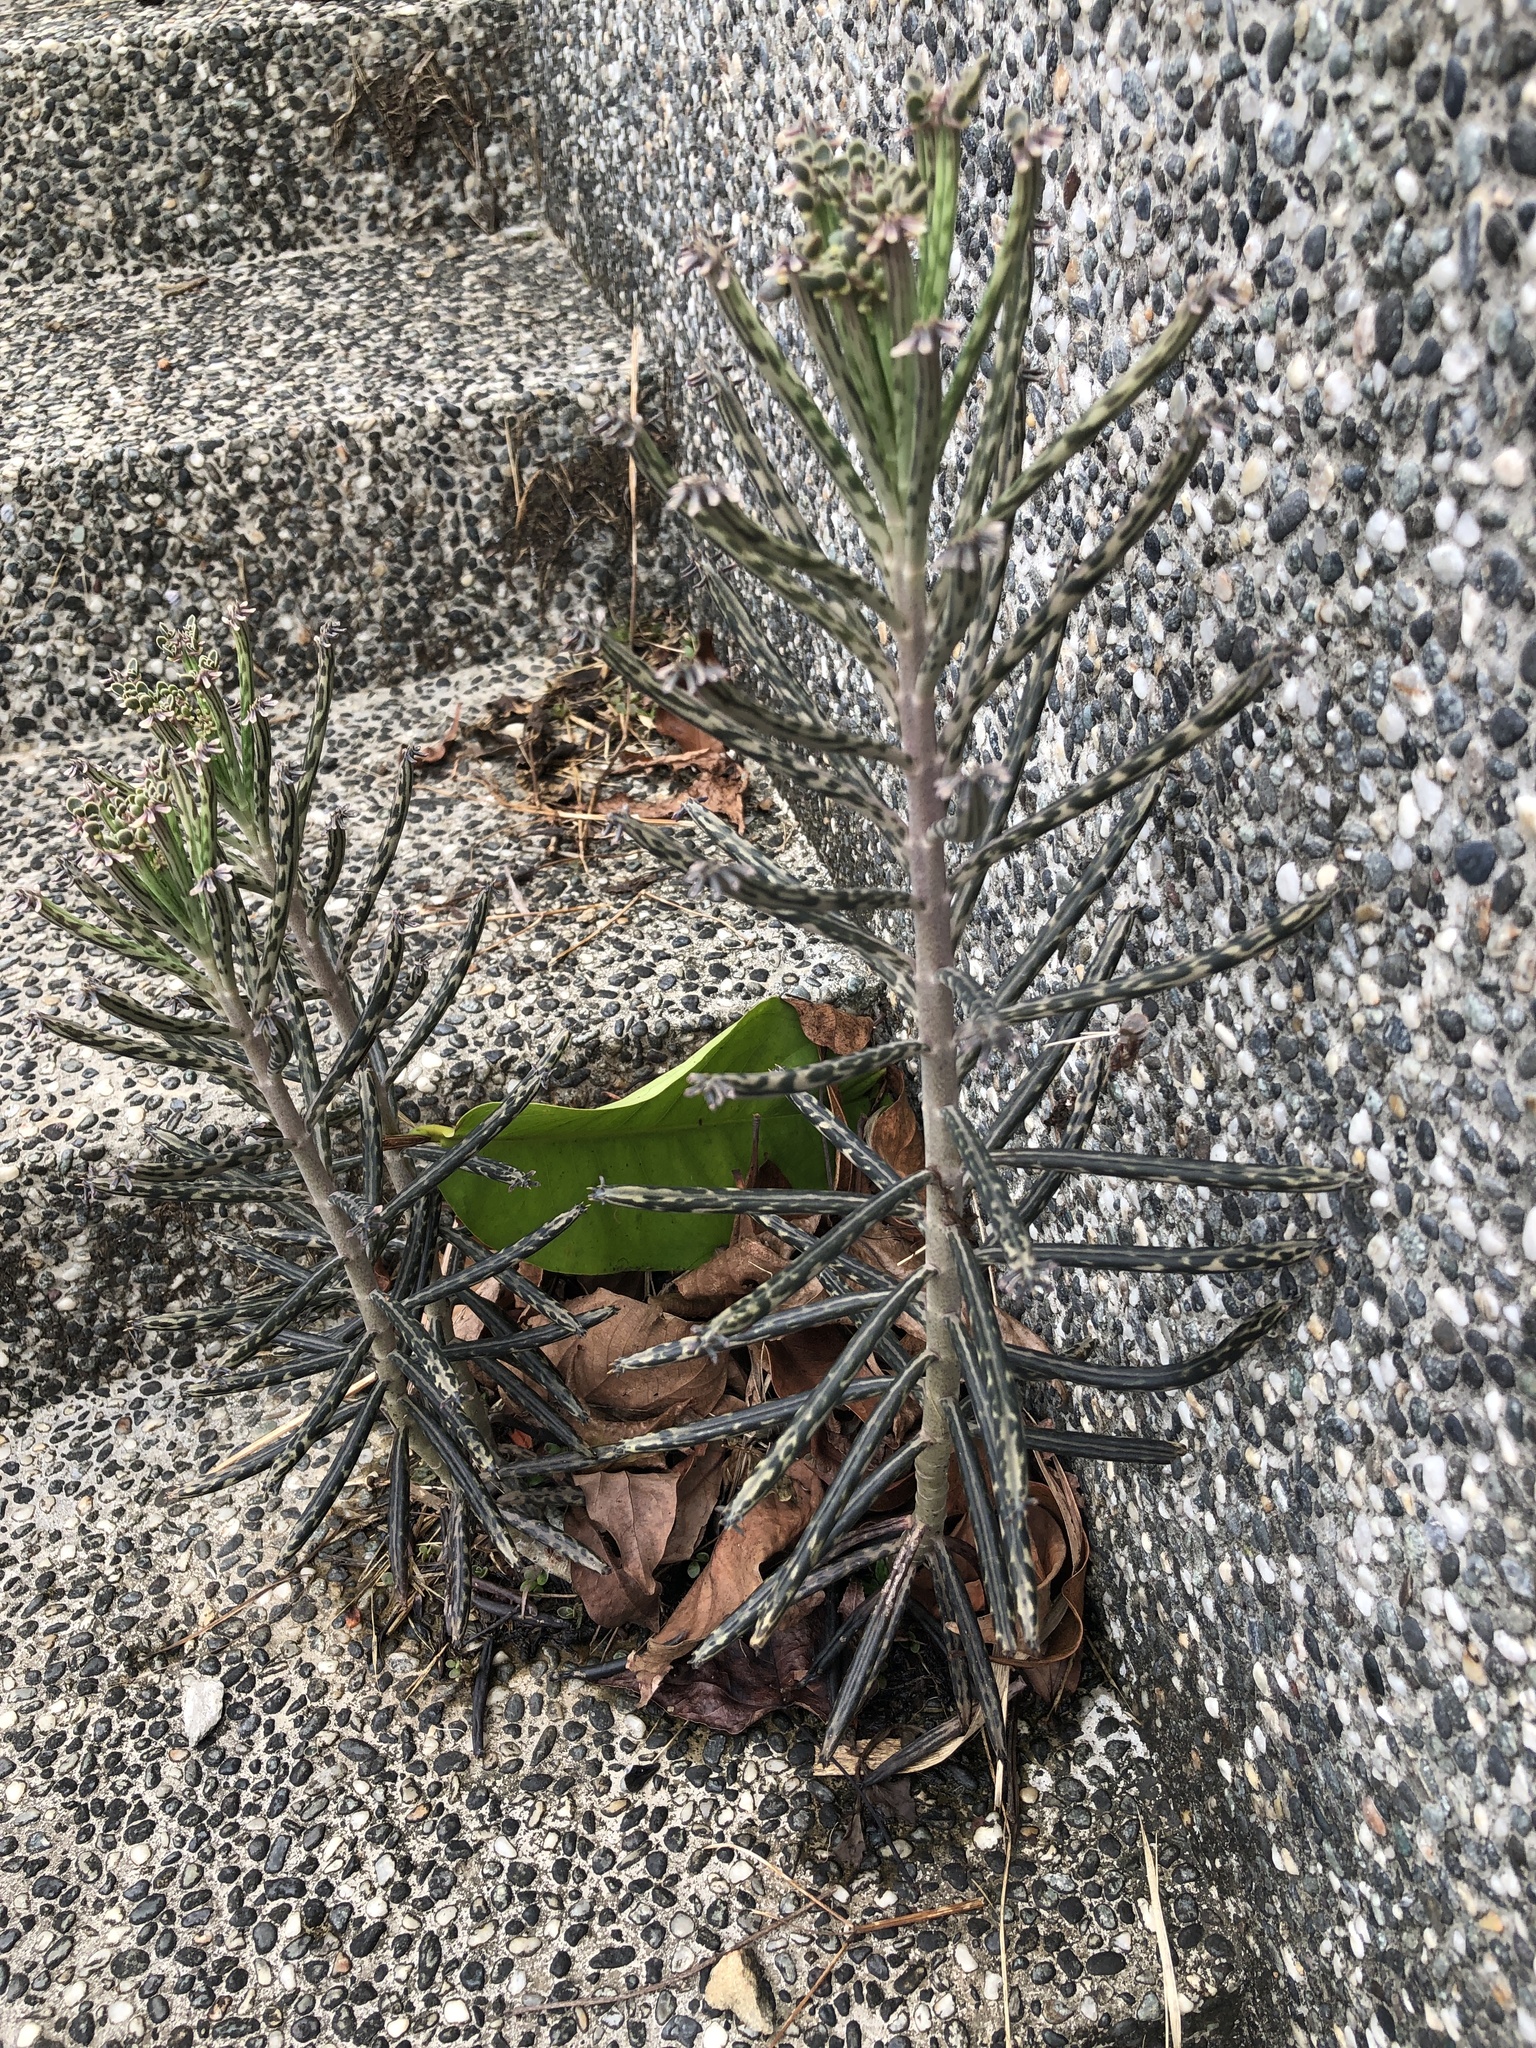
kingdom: Plantae
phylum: Tracheophyta
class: Magnoliopsida
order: Saxifragales
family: Crassulaceae
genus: Kalanchoe
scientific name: Kalanchoe delagoensis
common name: Chandelier plant
